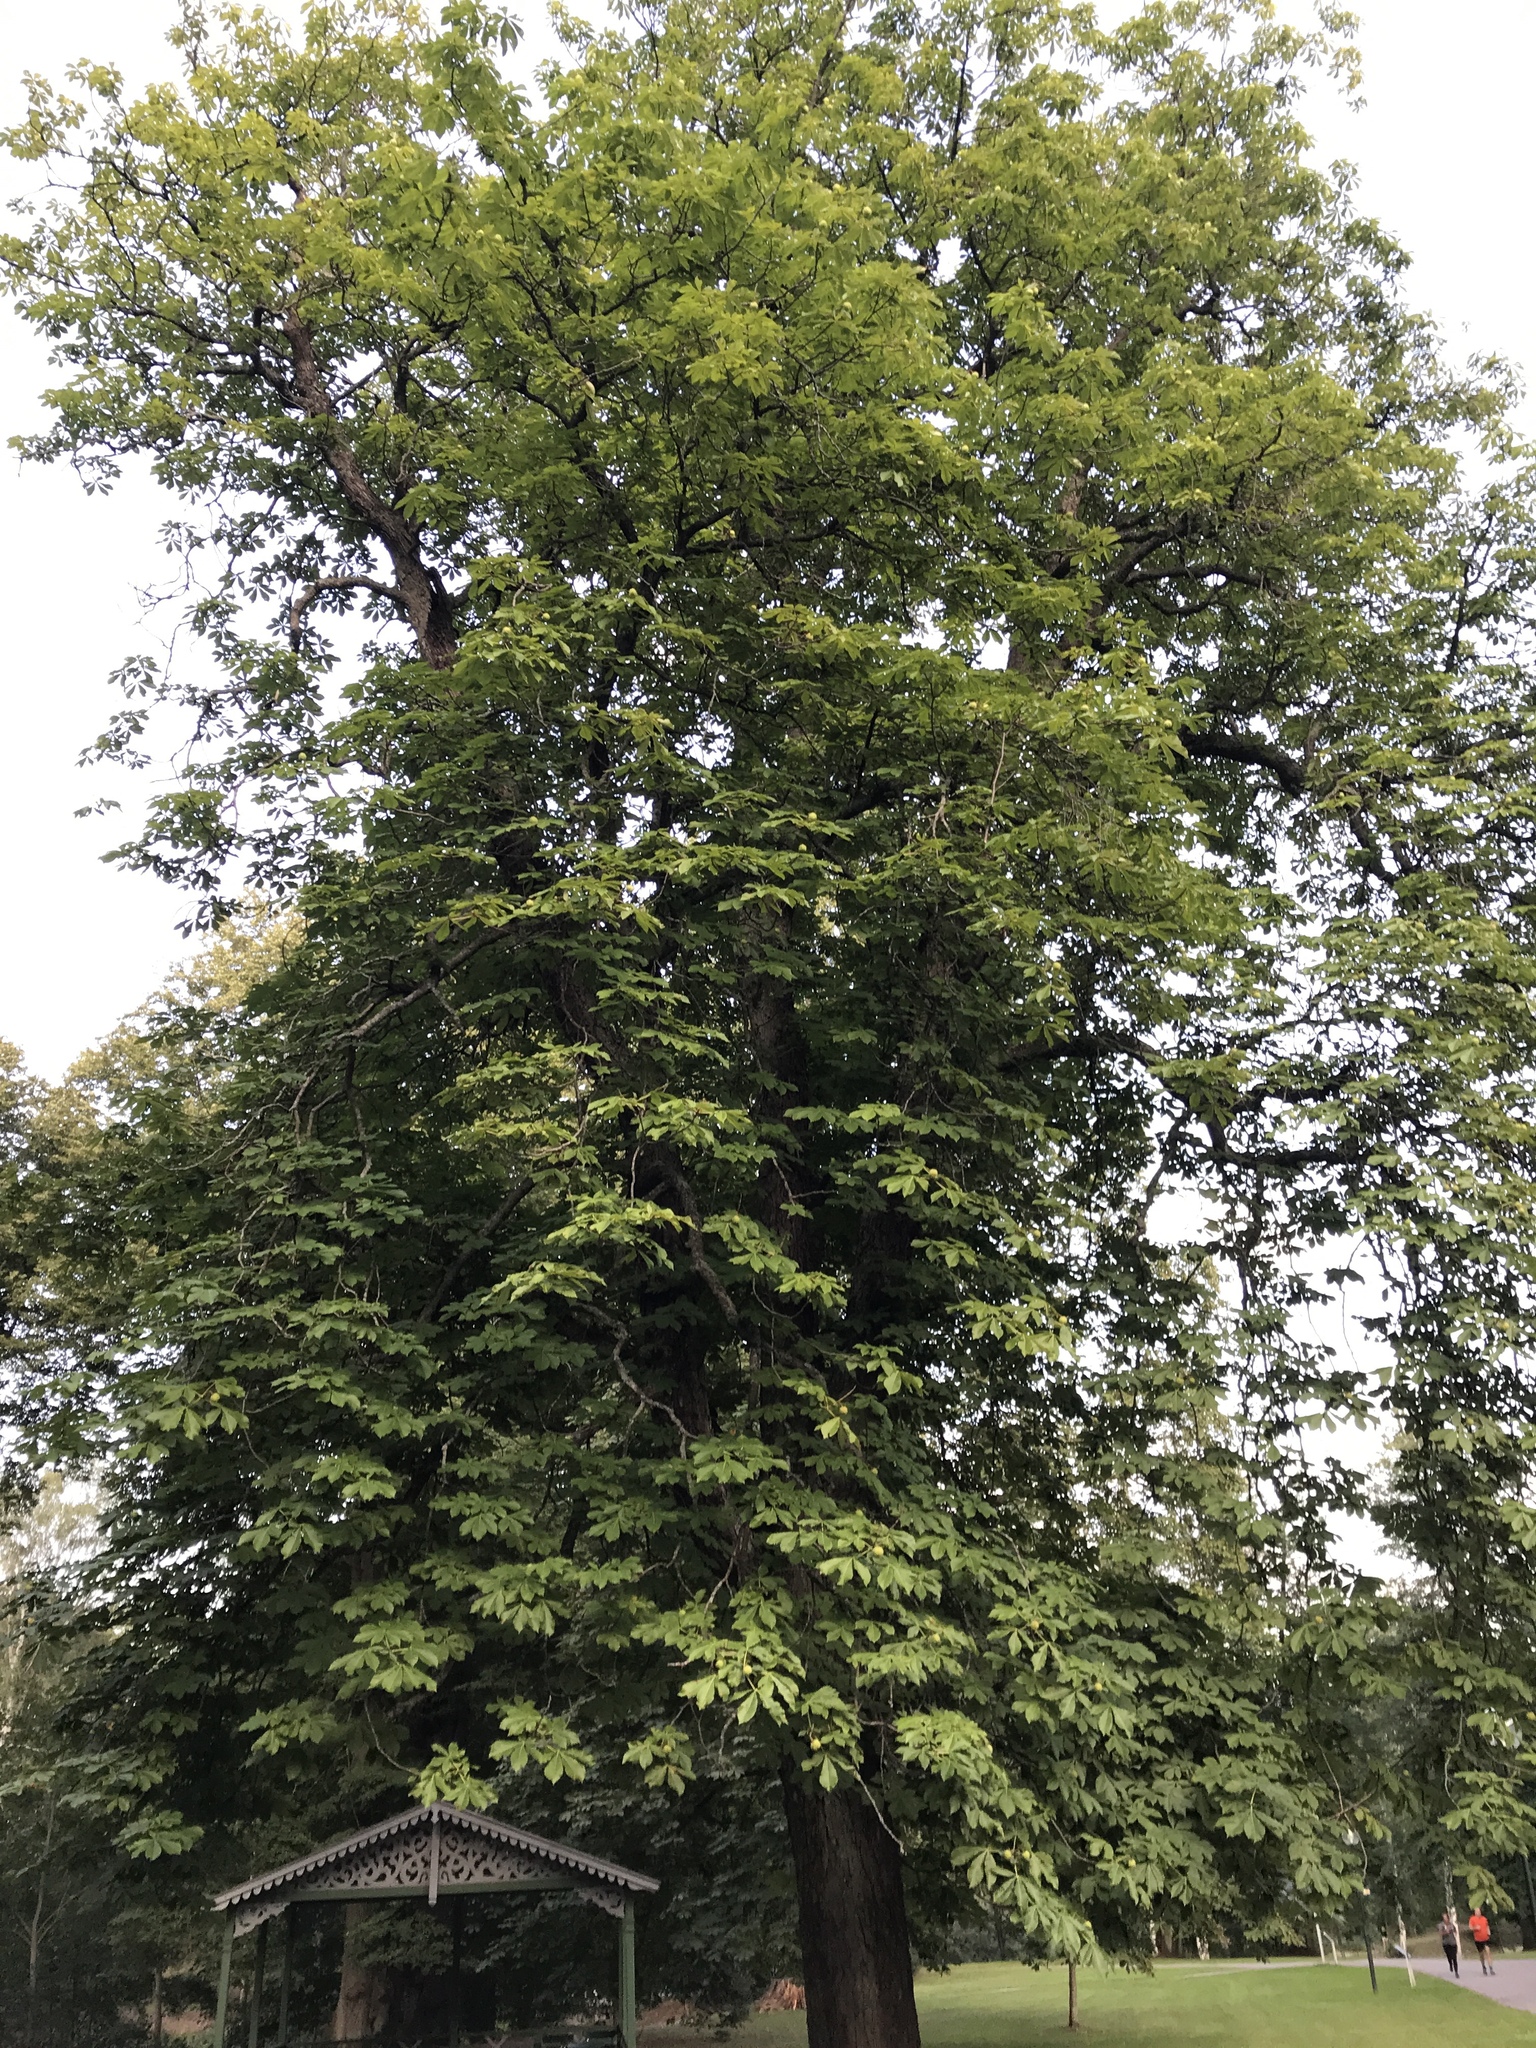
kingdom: Plantae
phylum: Tracheophyta
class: Magnoliopsida
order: Sapindales
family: Sapindaceae
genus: Aesculus
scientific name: Aesculus hippocastanum
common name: Horse-chestnut
